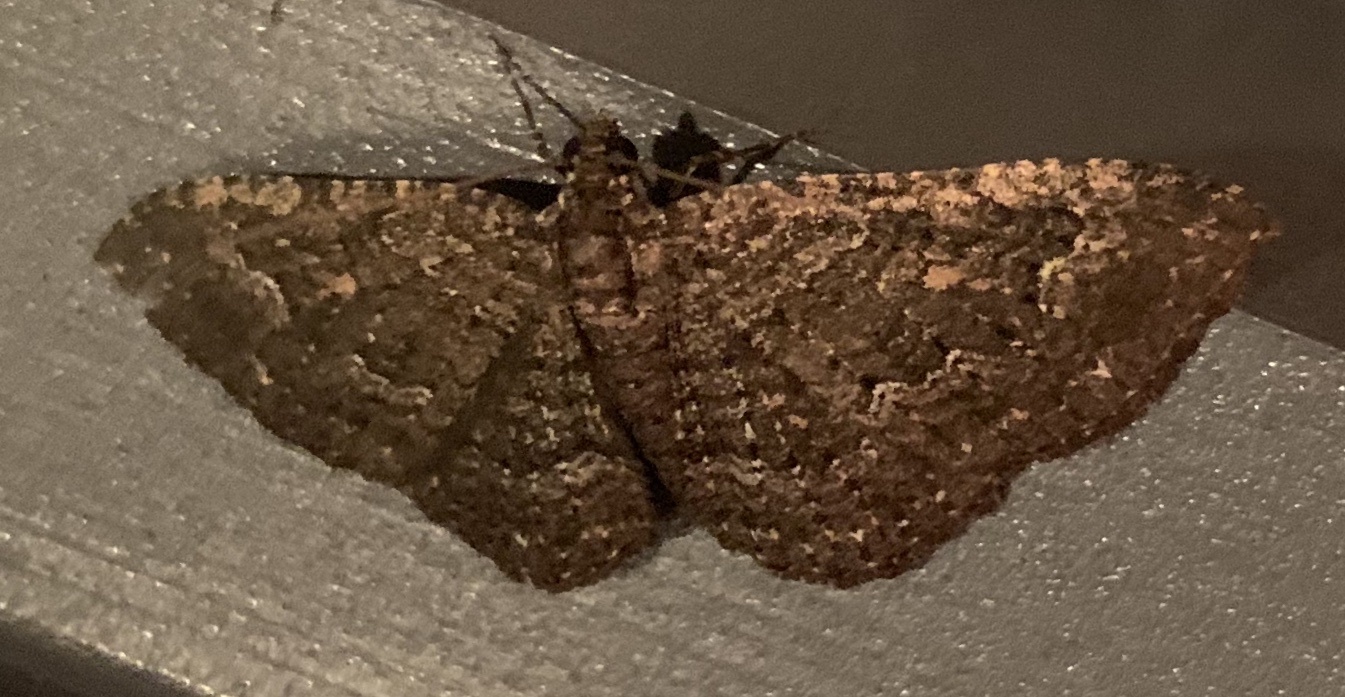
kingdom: Animalia
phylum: Arthropoda
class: Insecta
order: Lepidoptera
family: Geometridae
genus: Disclisioprocta
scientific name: Disclisioprocta stellata
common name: Somber carpet
